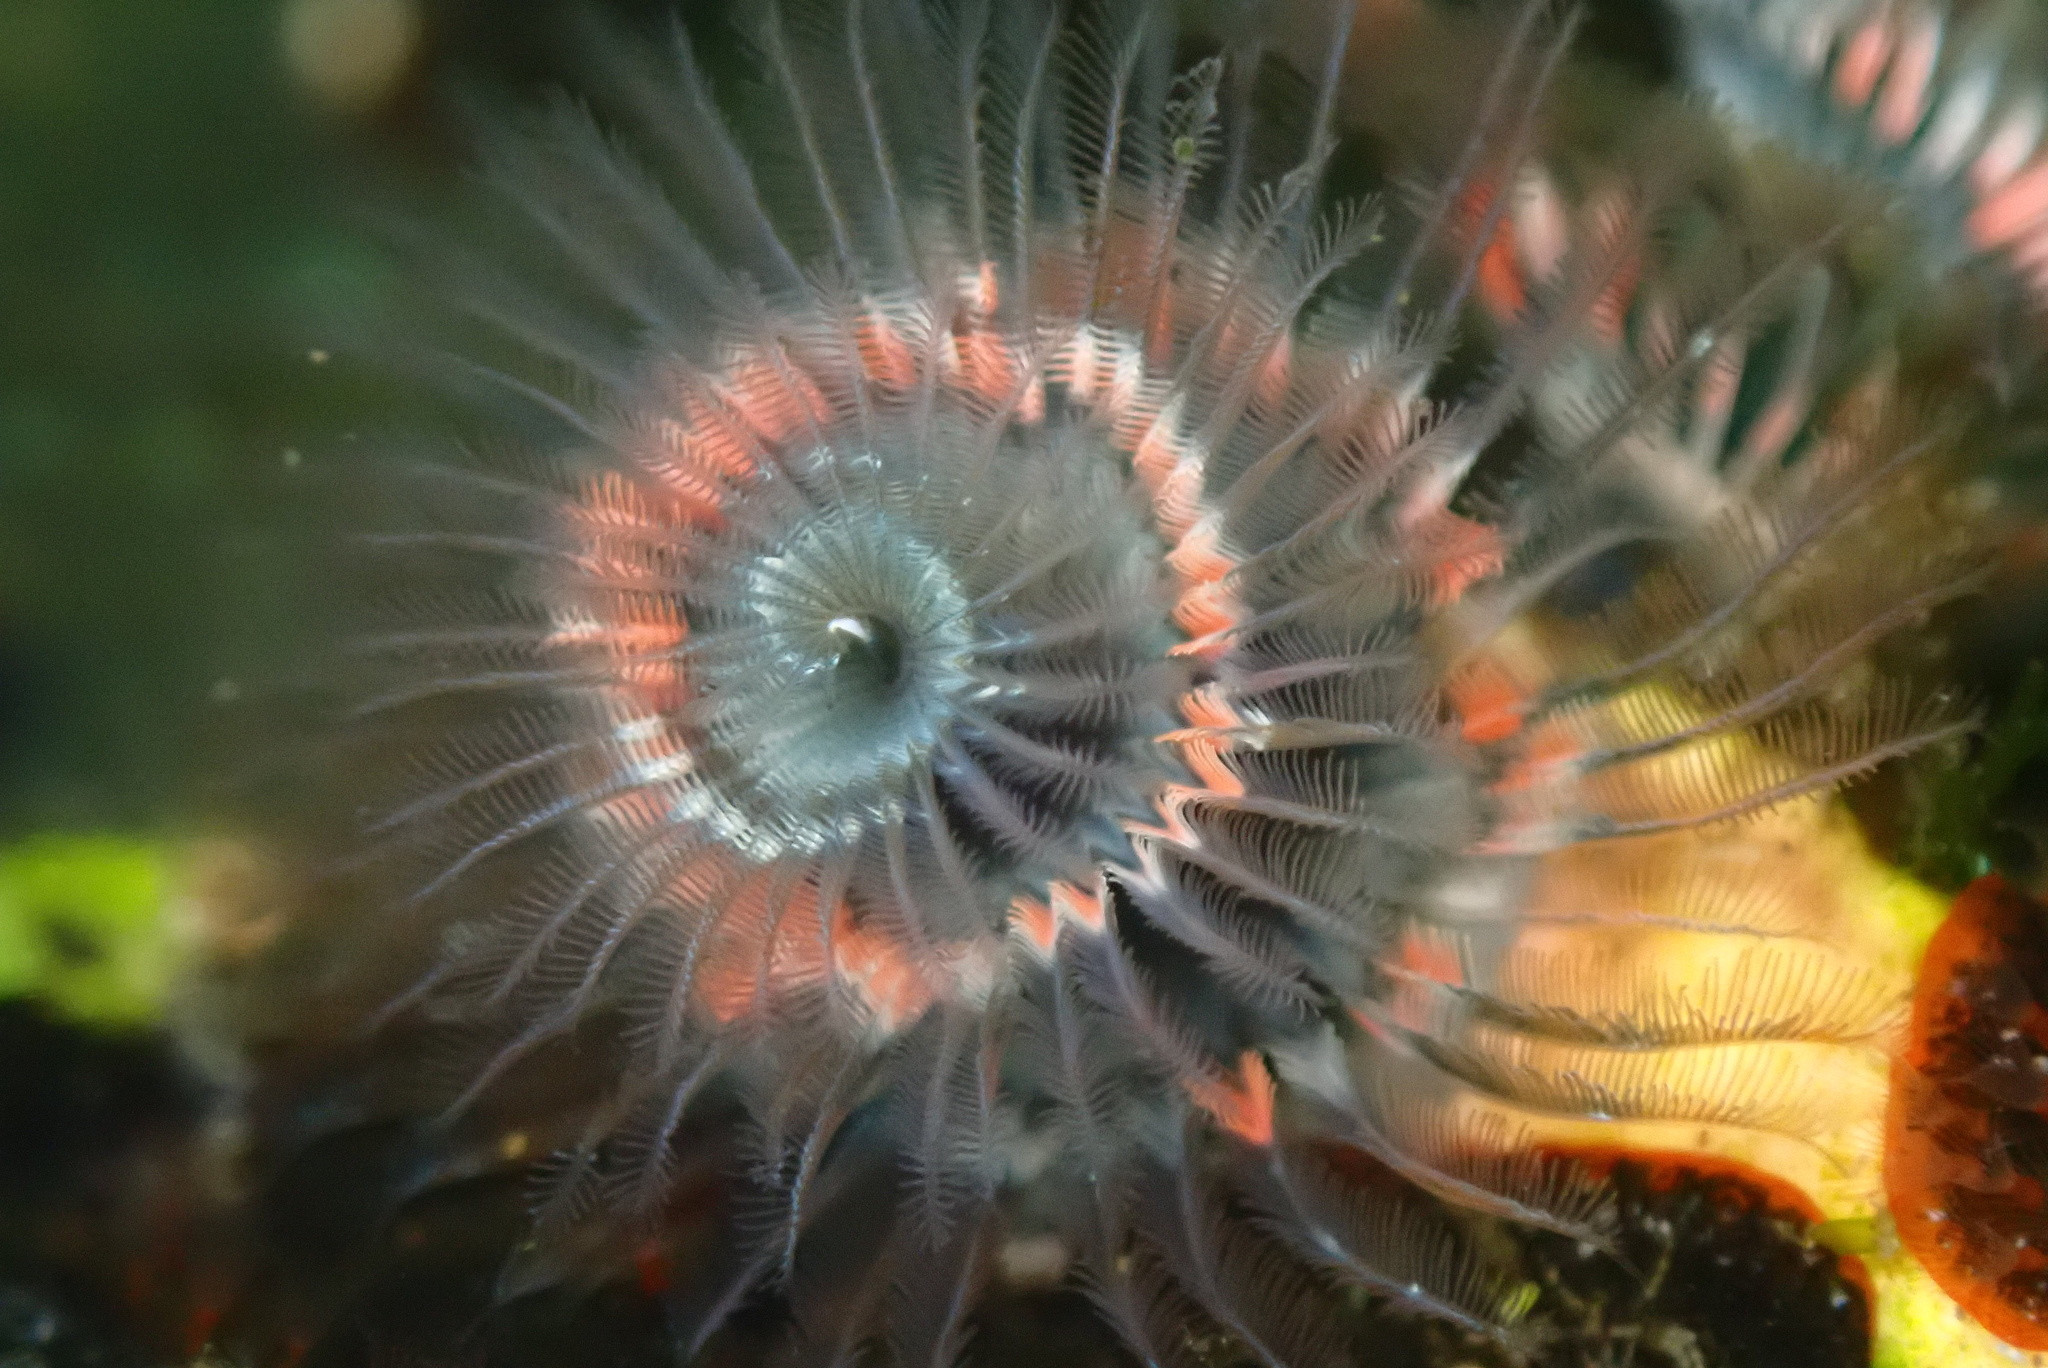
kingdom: Animalia
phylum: Annelida
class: Polychaeta
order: Sabellida
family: Serpulidae
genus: Spirobranchus
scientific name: Spirobranchus spinosus
